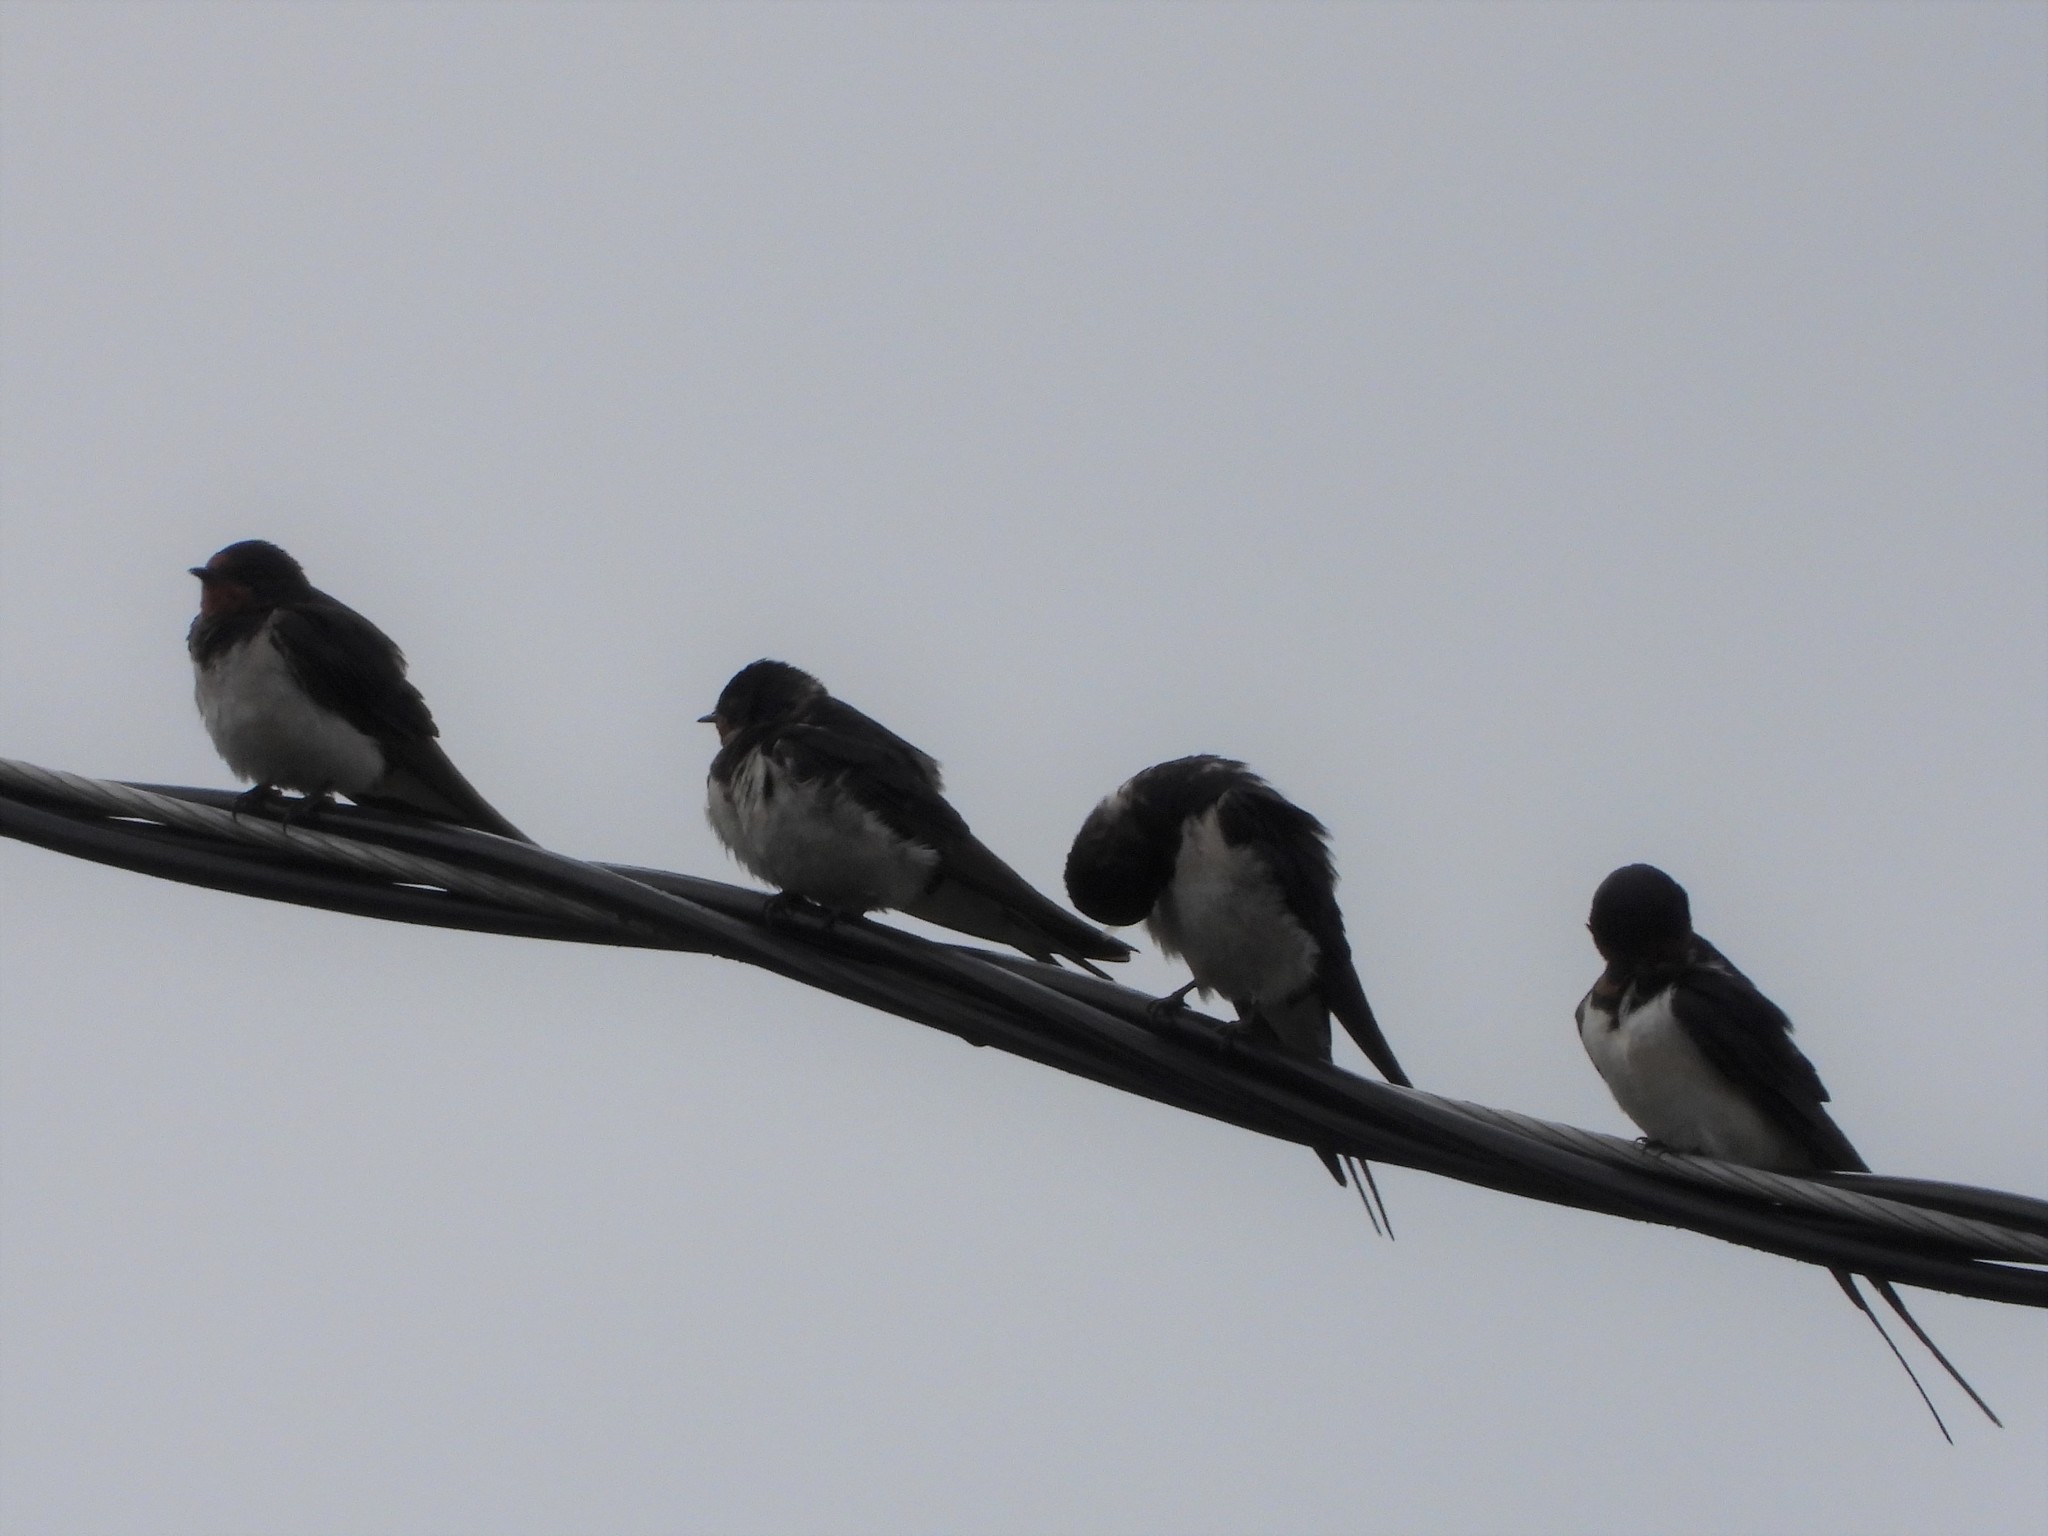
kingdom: Animalia
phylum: Chordata
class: Aves
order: Passeriformes
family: Hirundinidae
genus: Hirundo
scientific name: Hirundo rustica
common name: Barn swallow
